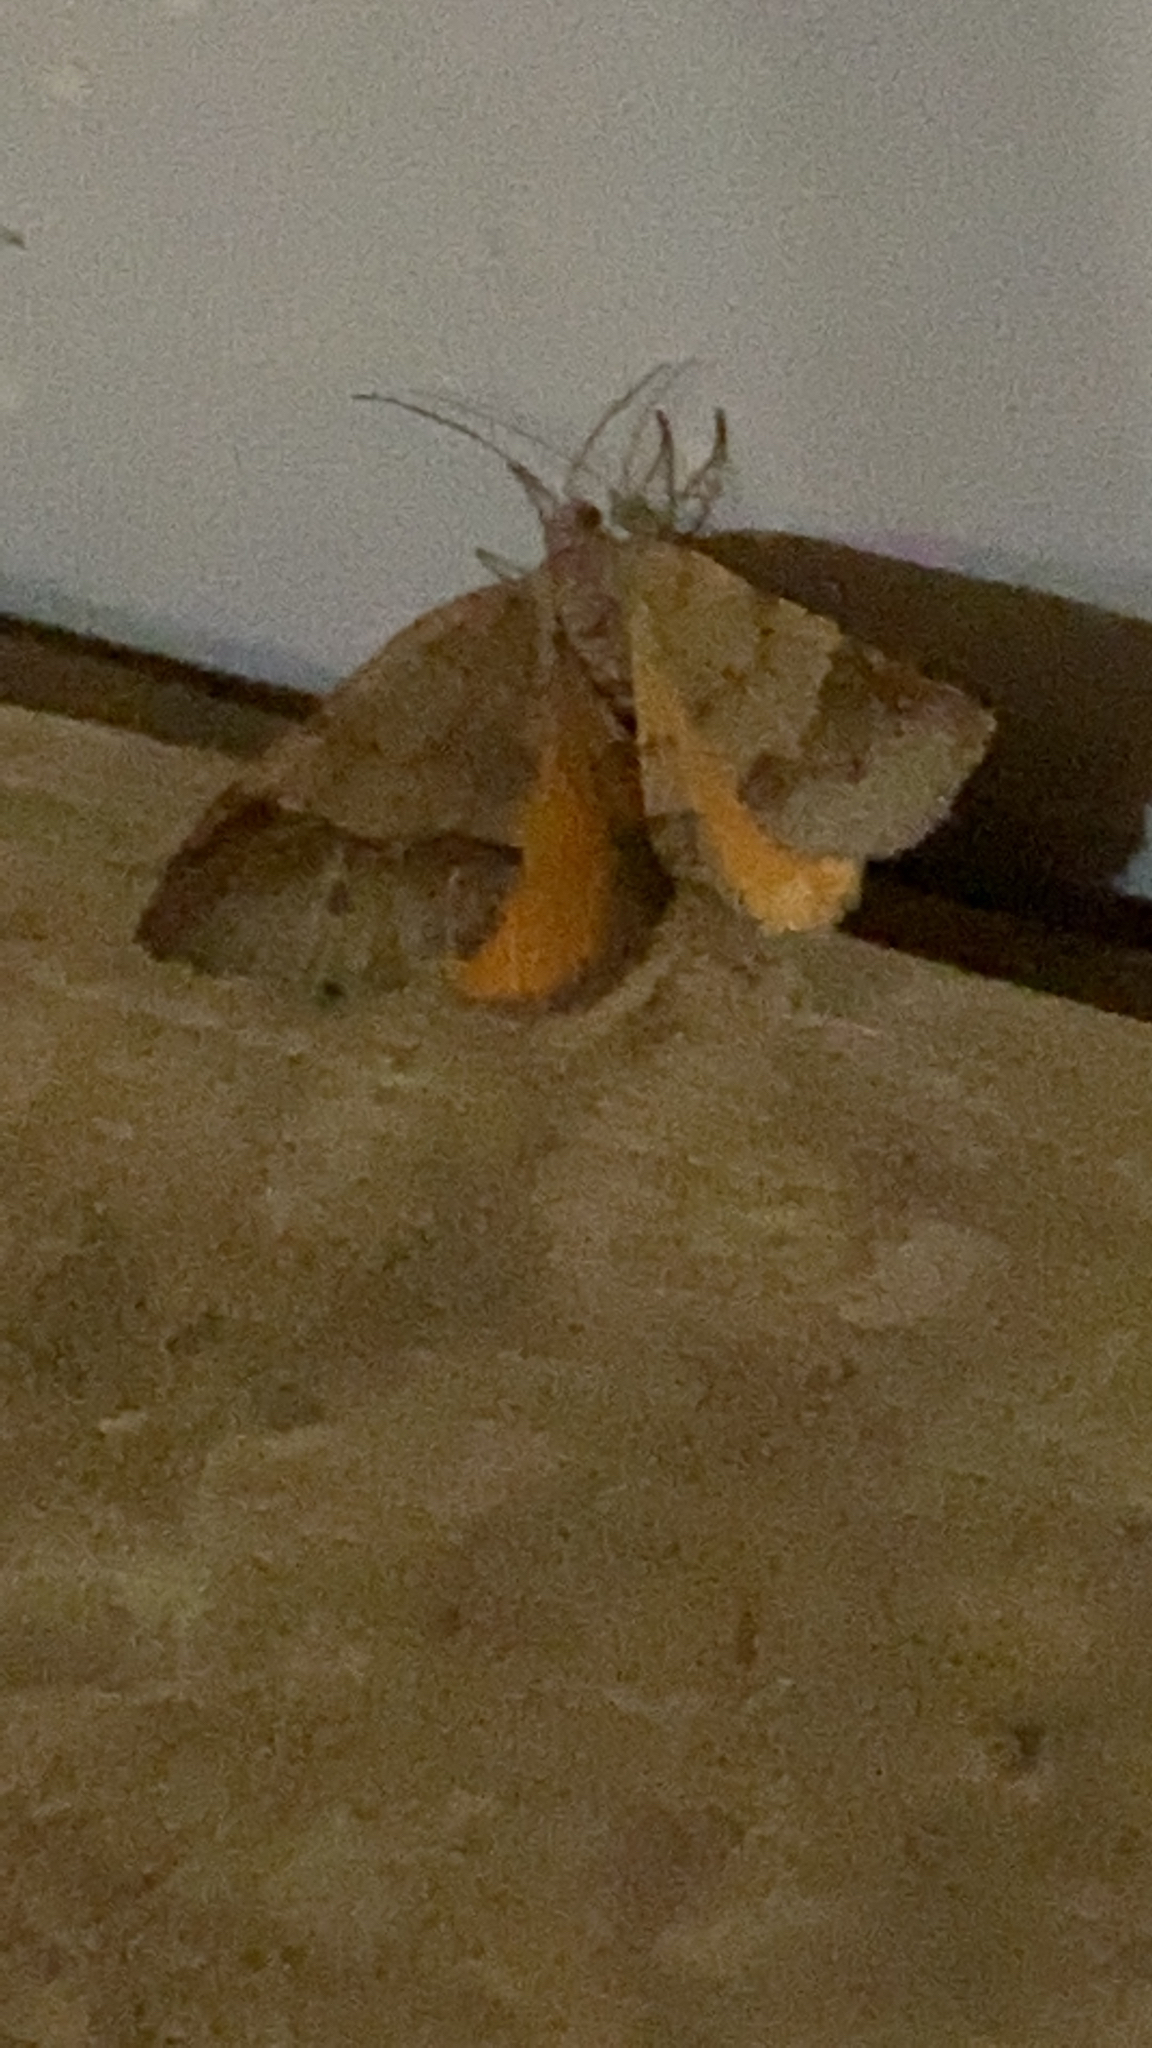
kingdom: Animalia
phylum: Arthropoda
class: Insecta
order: Lepidoptera
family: Geometridae
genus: Mellilla
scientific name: Mellilla xanthometata
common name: Orange wing moth
